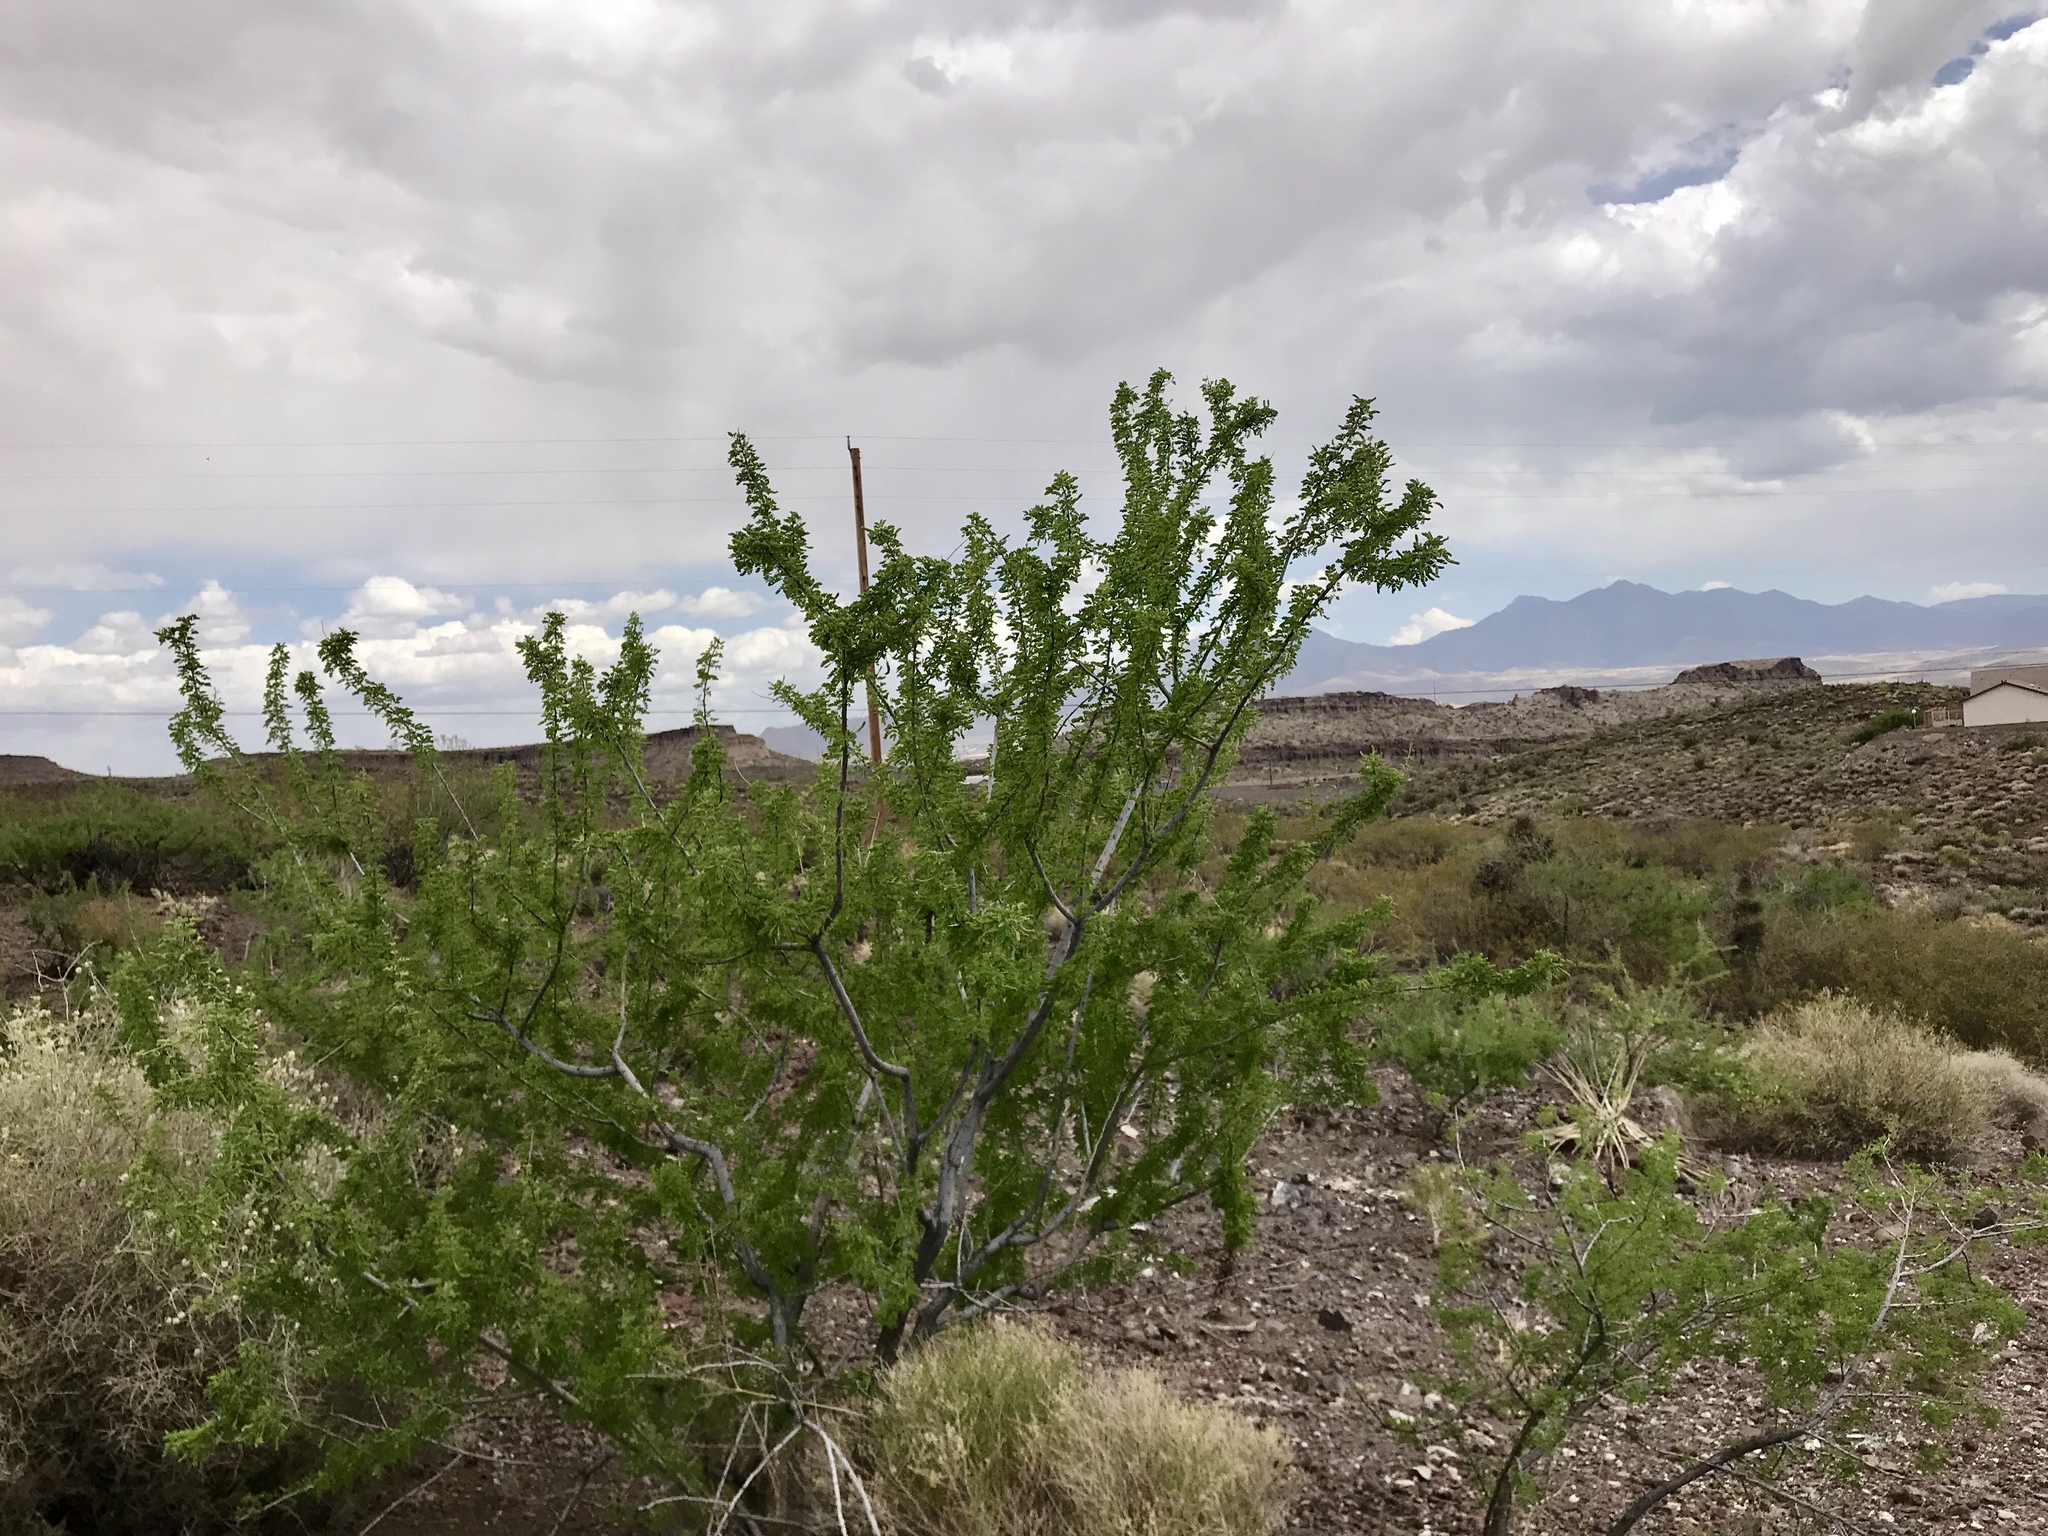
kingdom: Plantae
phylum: Tracheophyta
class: Magnoliopsida
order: Fabales
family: Fabaceae
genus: Senegalia
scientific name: Senegalia greggii
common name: Texas-mimosa
